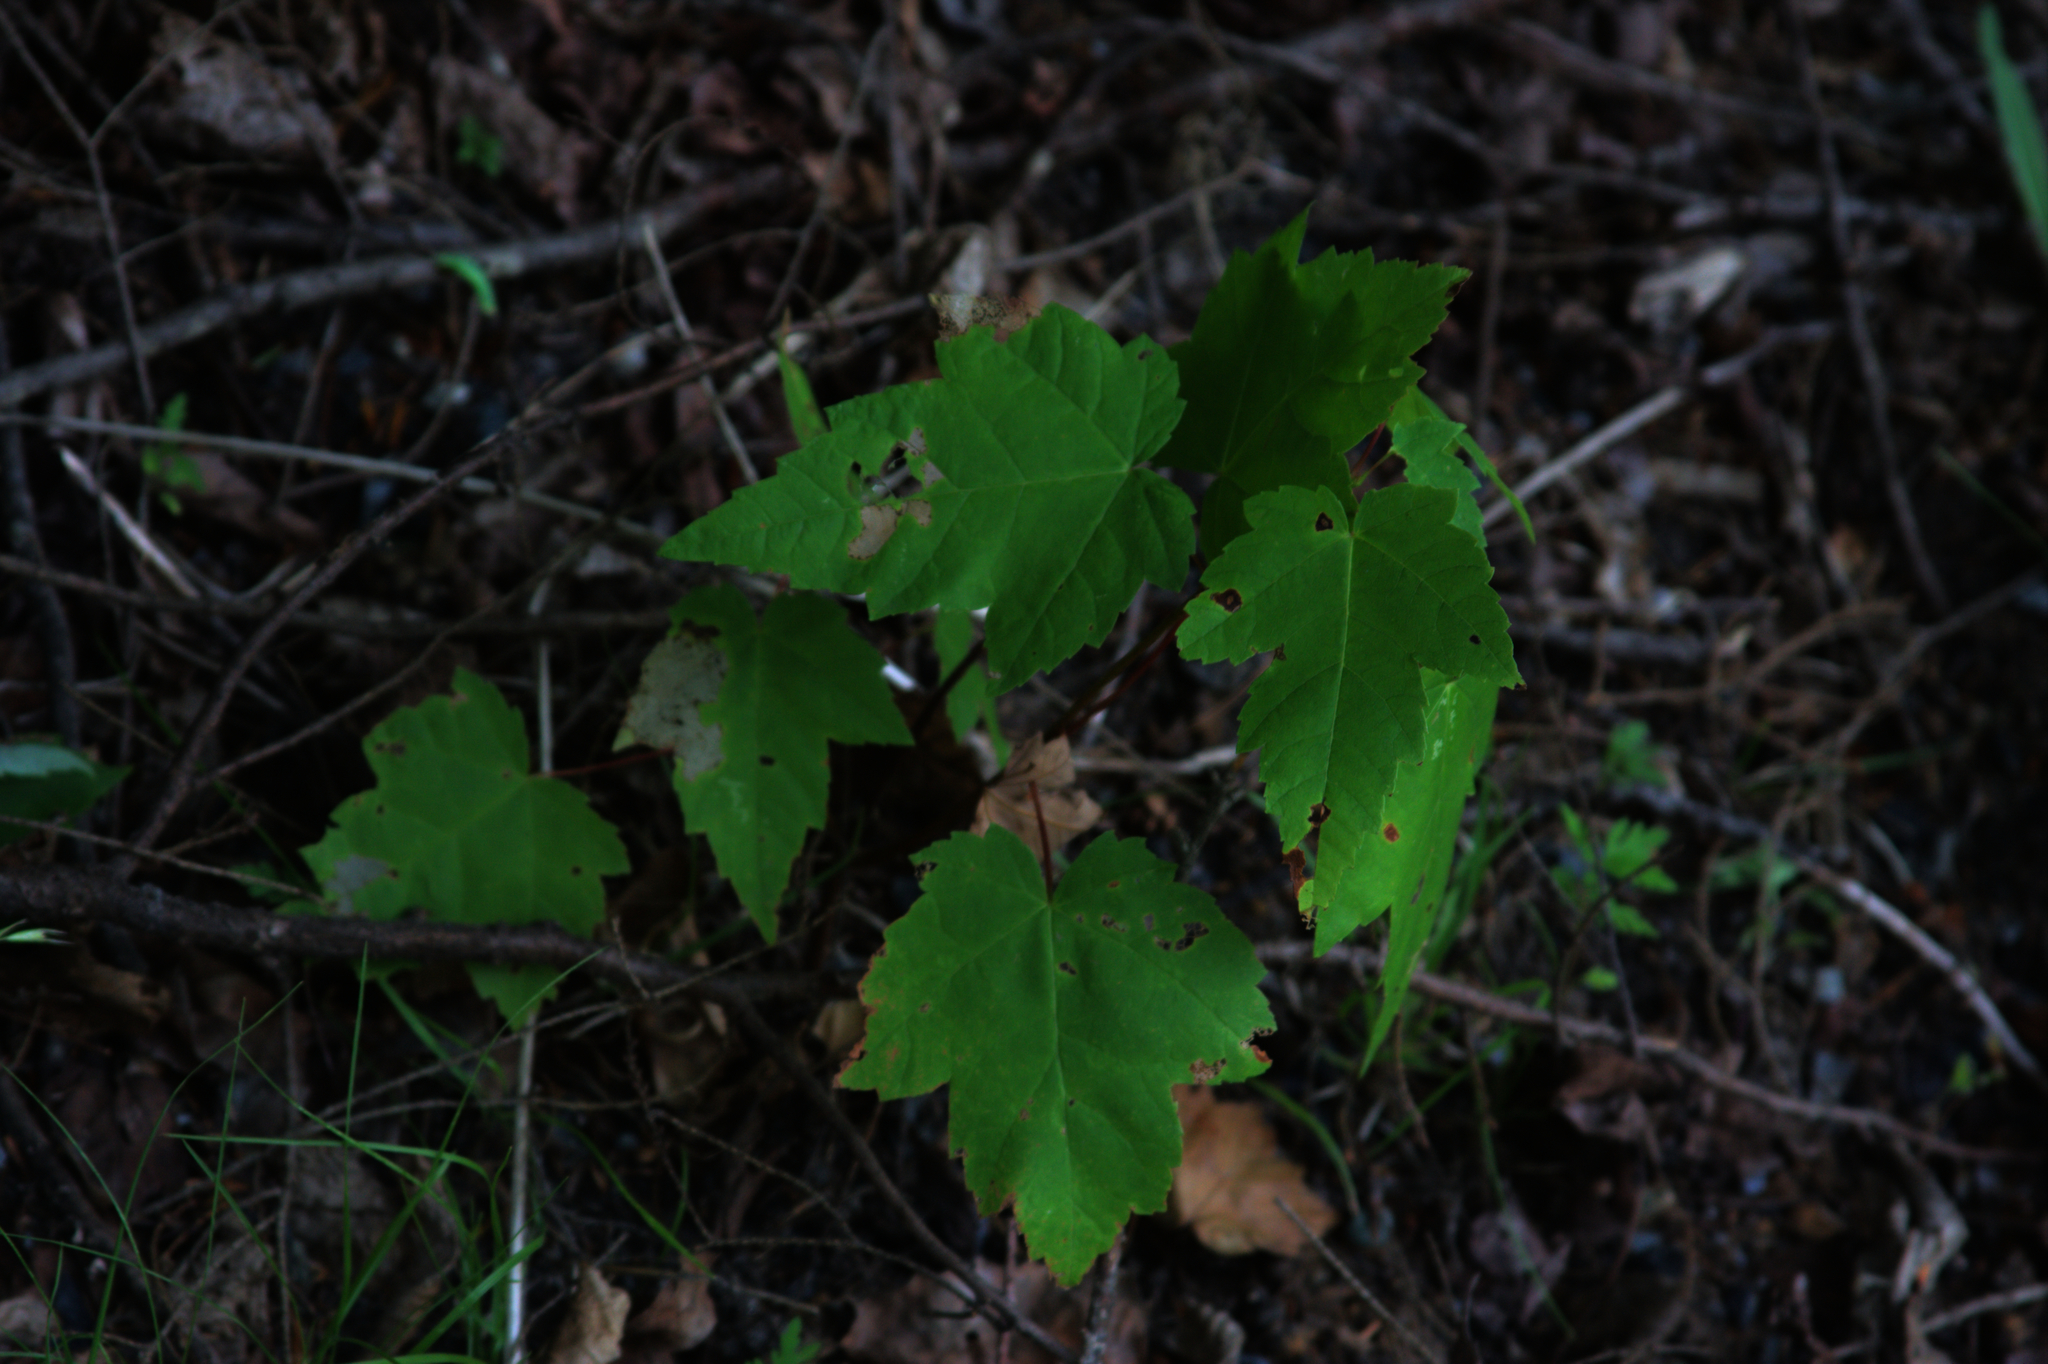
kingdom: Plantae
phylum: Tracheophyta
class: Magnoliopsida
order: Sapindales
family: Sapindaceae
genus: Acer
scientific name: Acer rubrum
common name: Red maple
